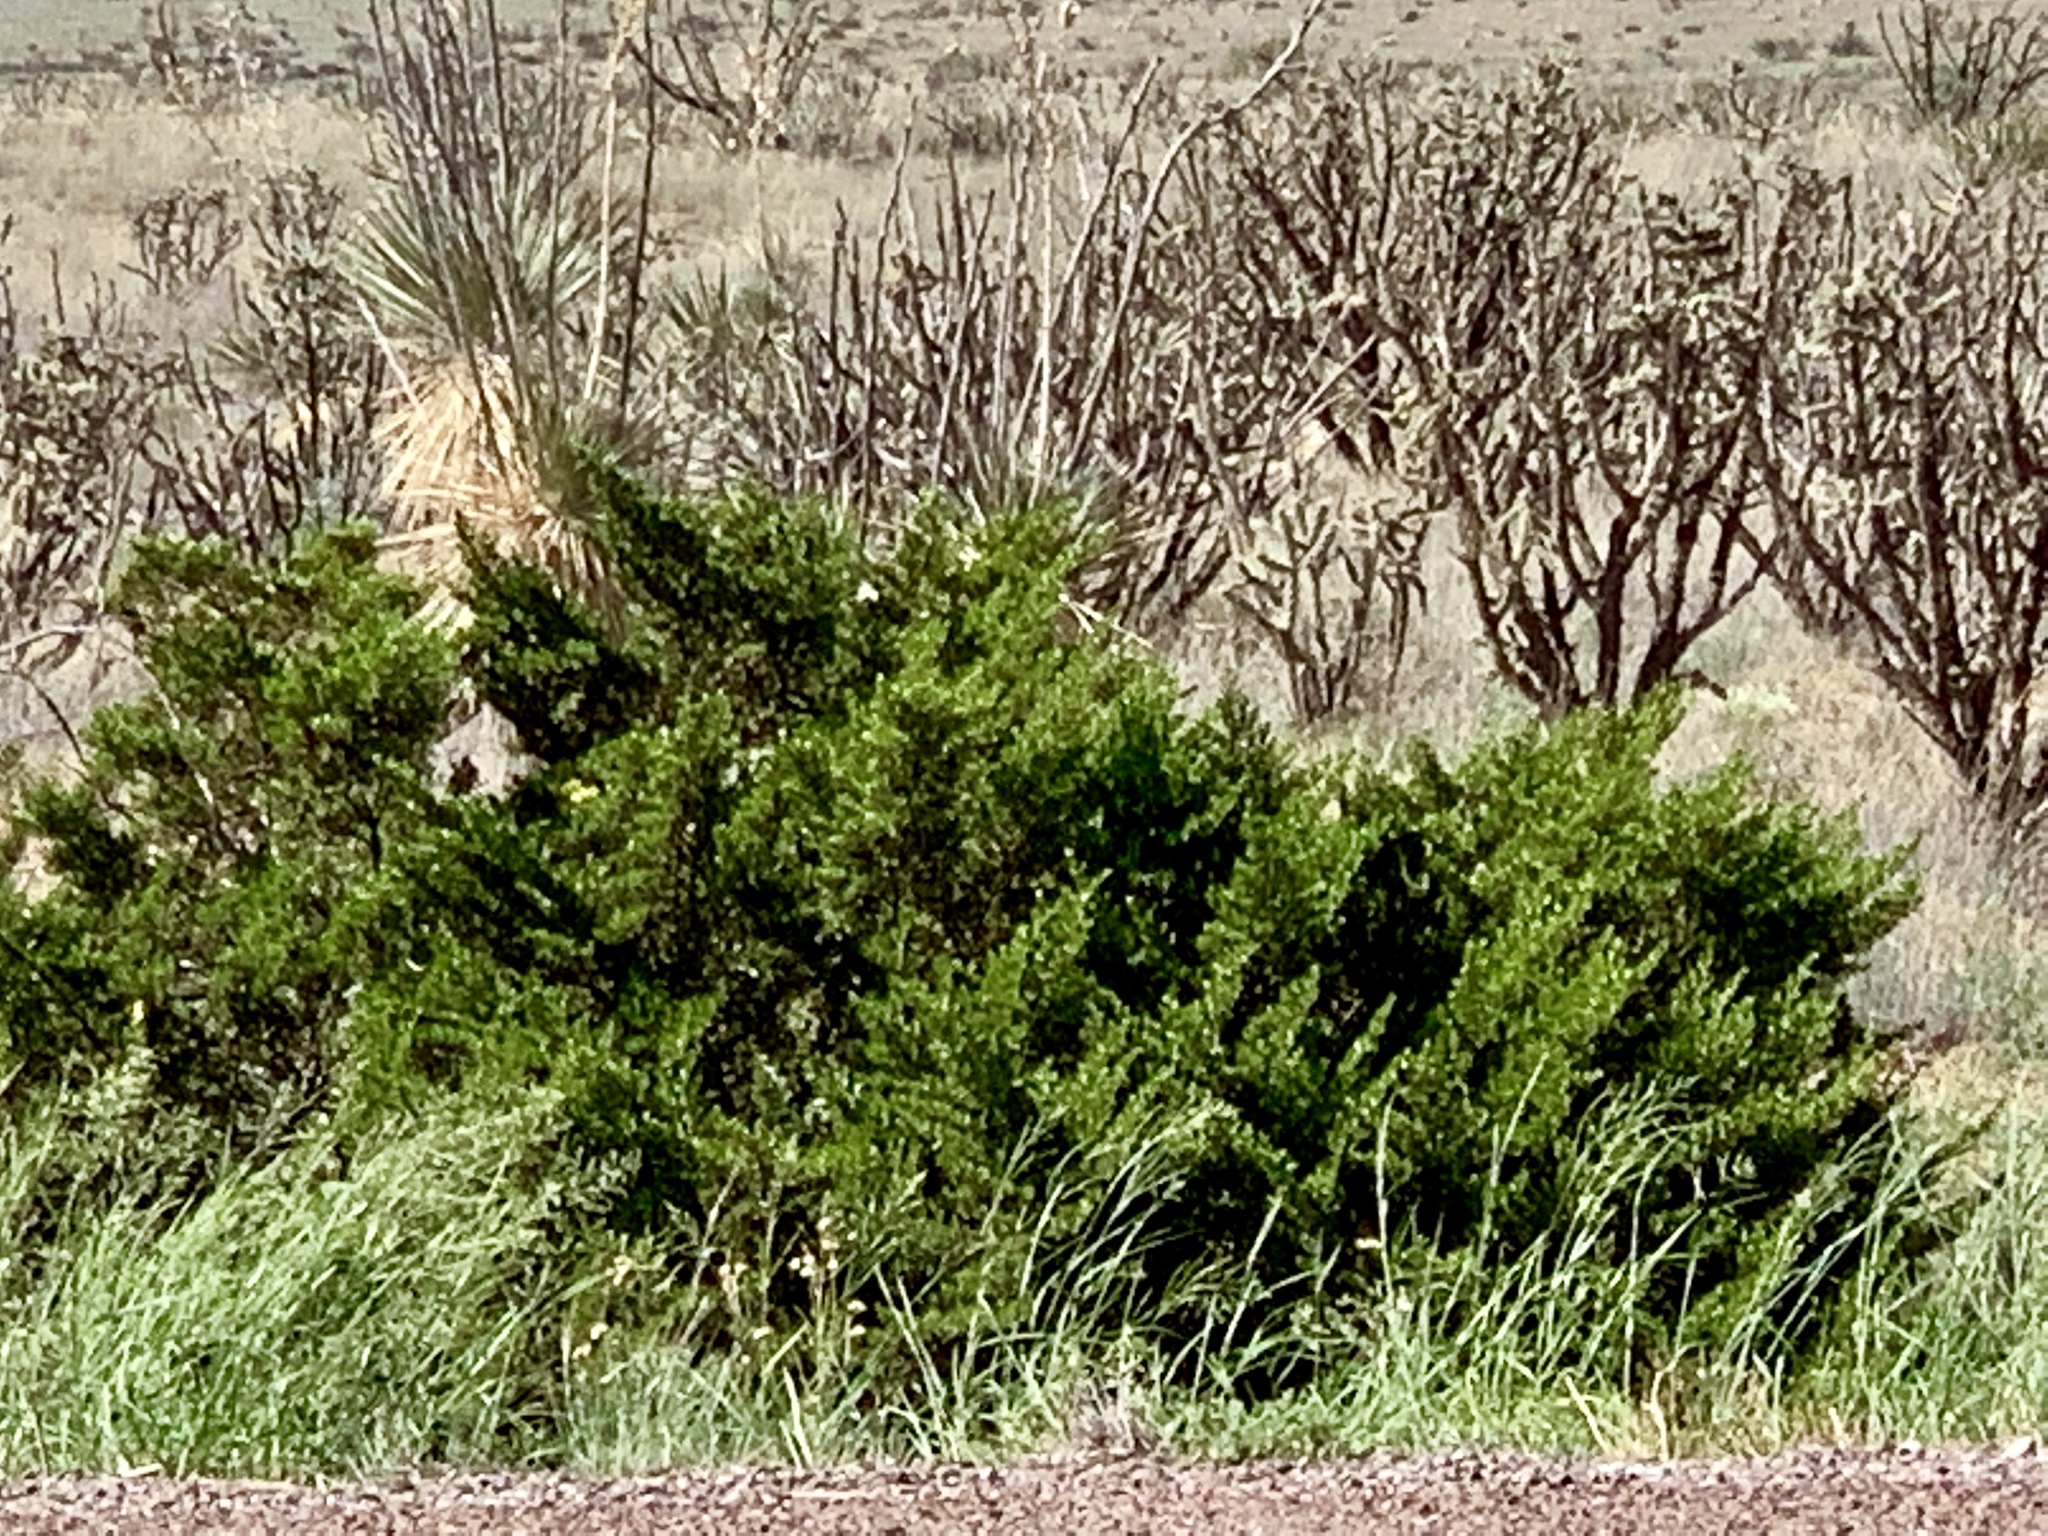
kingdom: Plantae
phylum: Tracheophyta
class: Magnoliopsida
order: Zygophyllales
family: Zygophyllaceae
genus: Larrea
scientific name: Larrea tridentata
